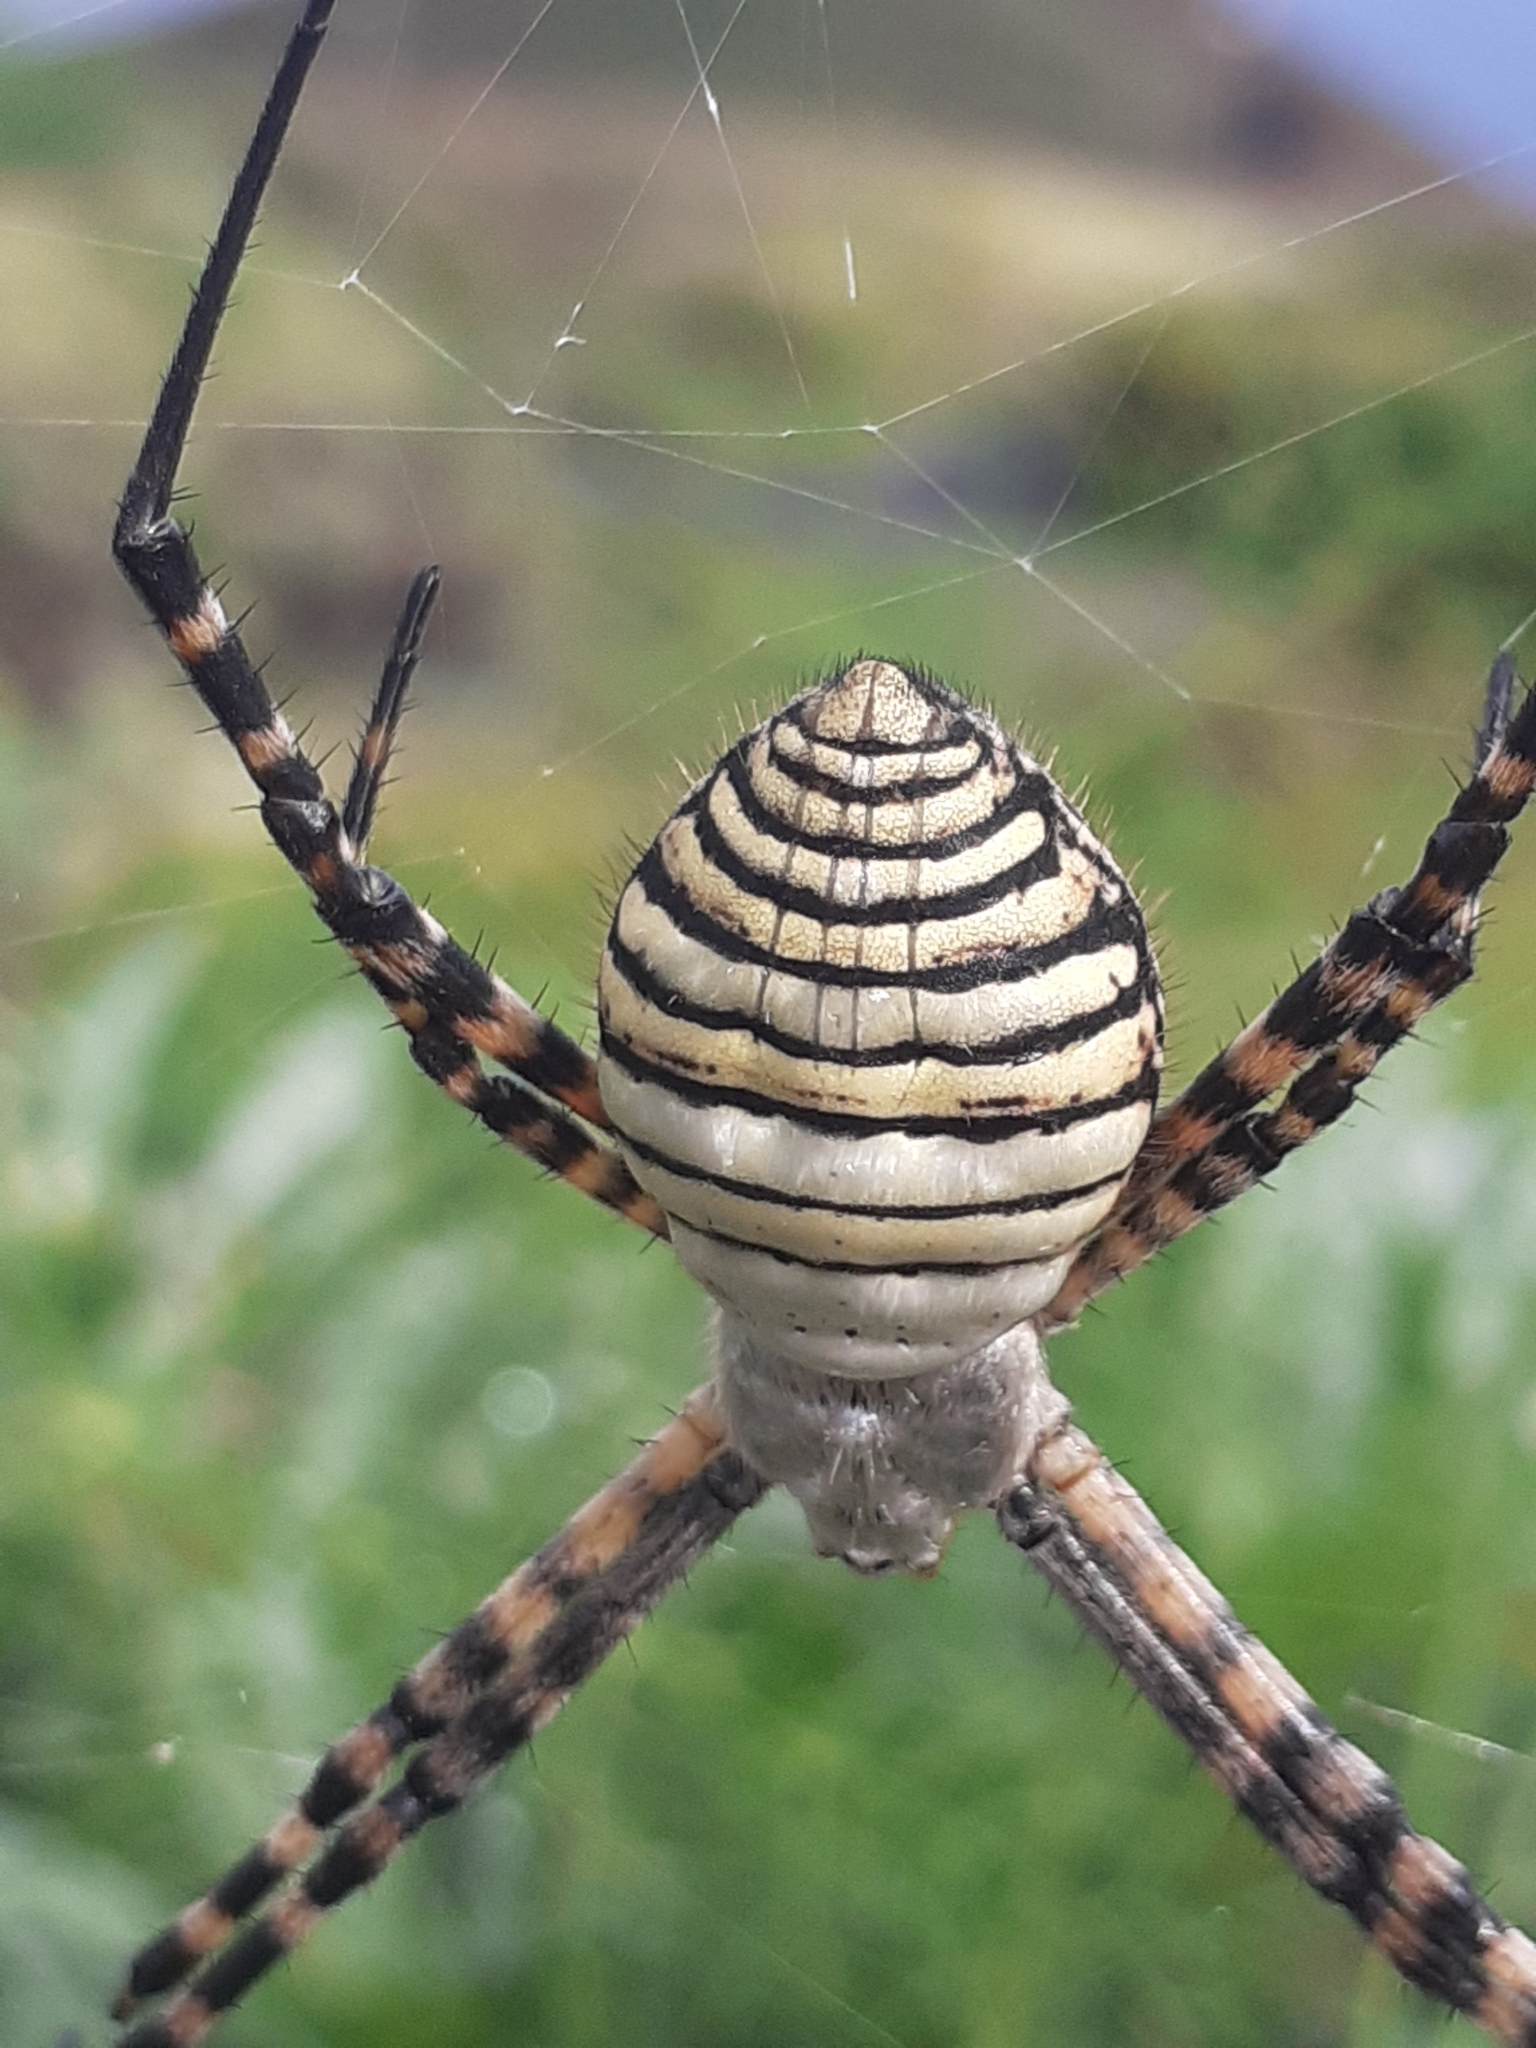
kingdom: Animalia
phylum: Arthropoda
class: Arachnida
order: Araneae
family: Araneidae
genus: Argiope
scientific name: Argiope trifasciata
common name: Banded garden spider
